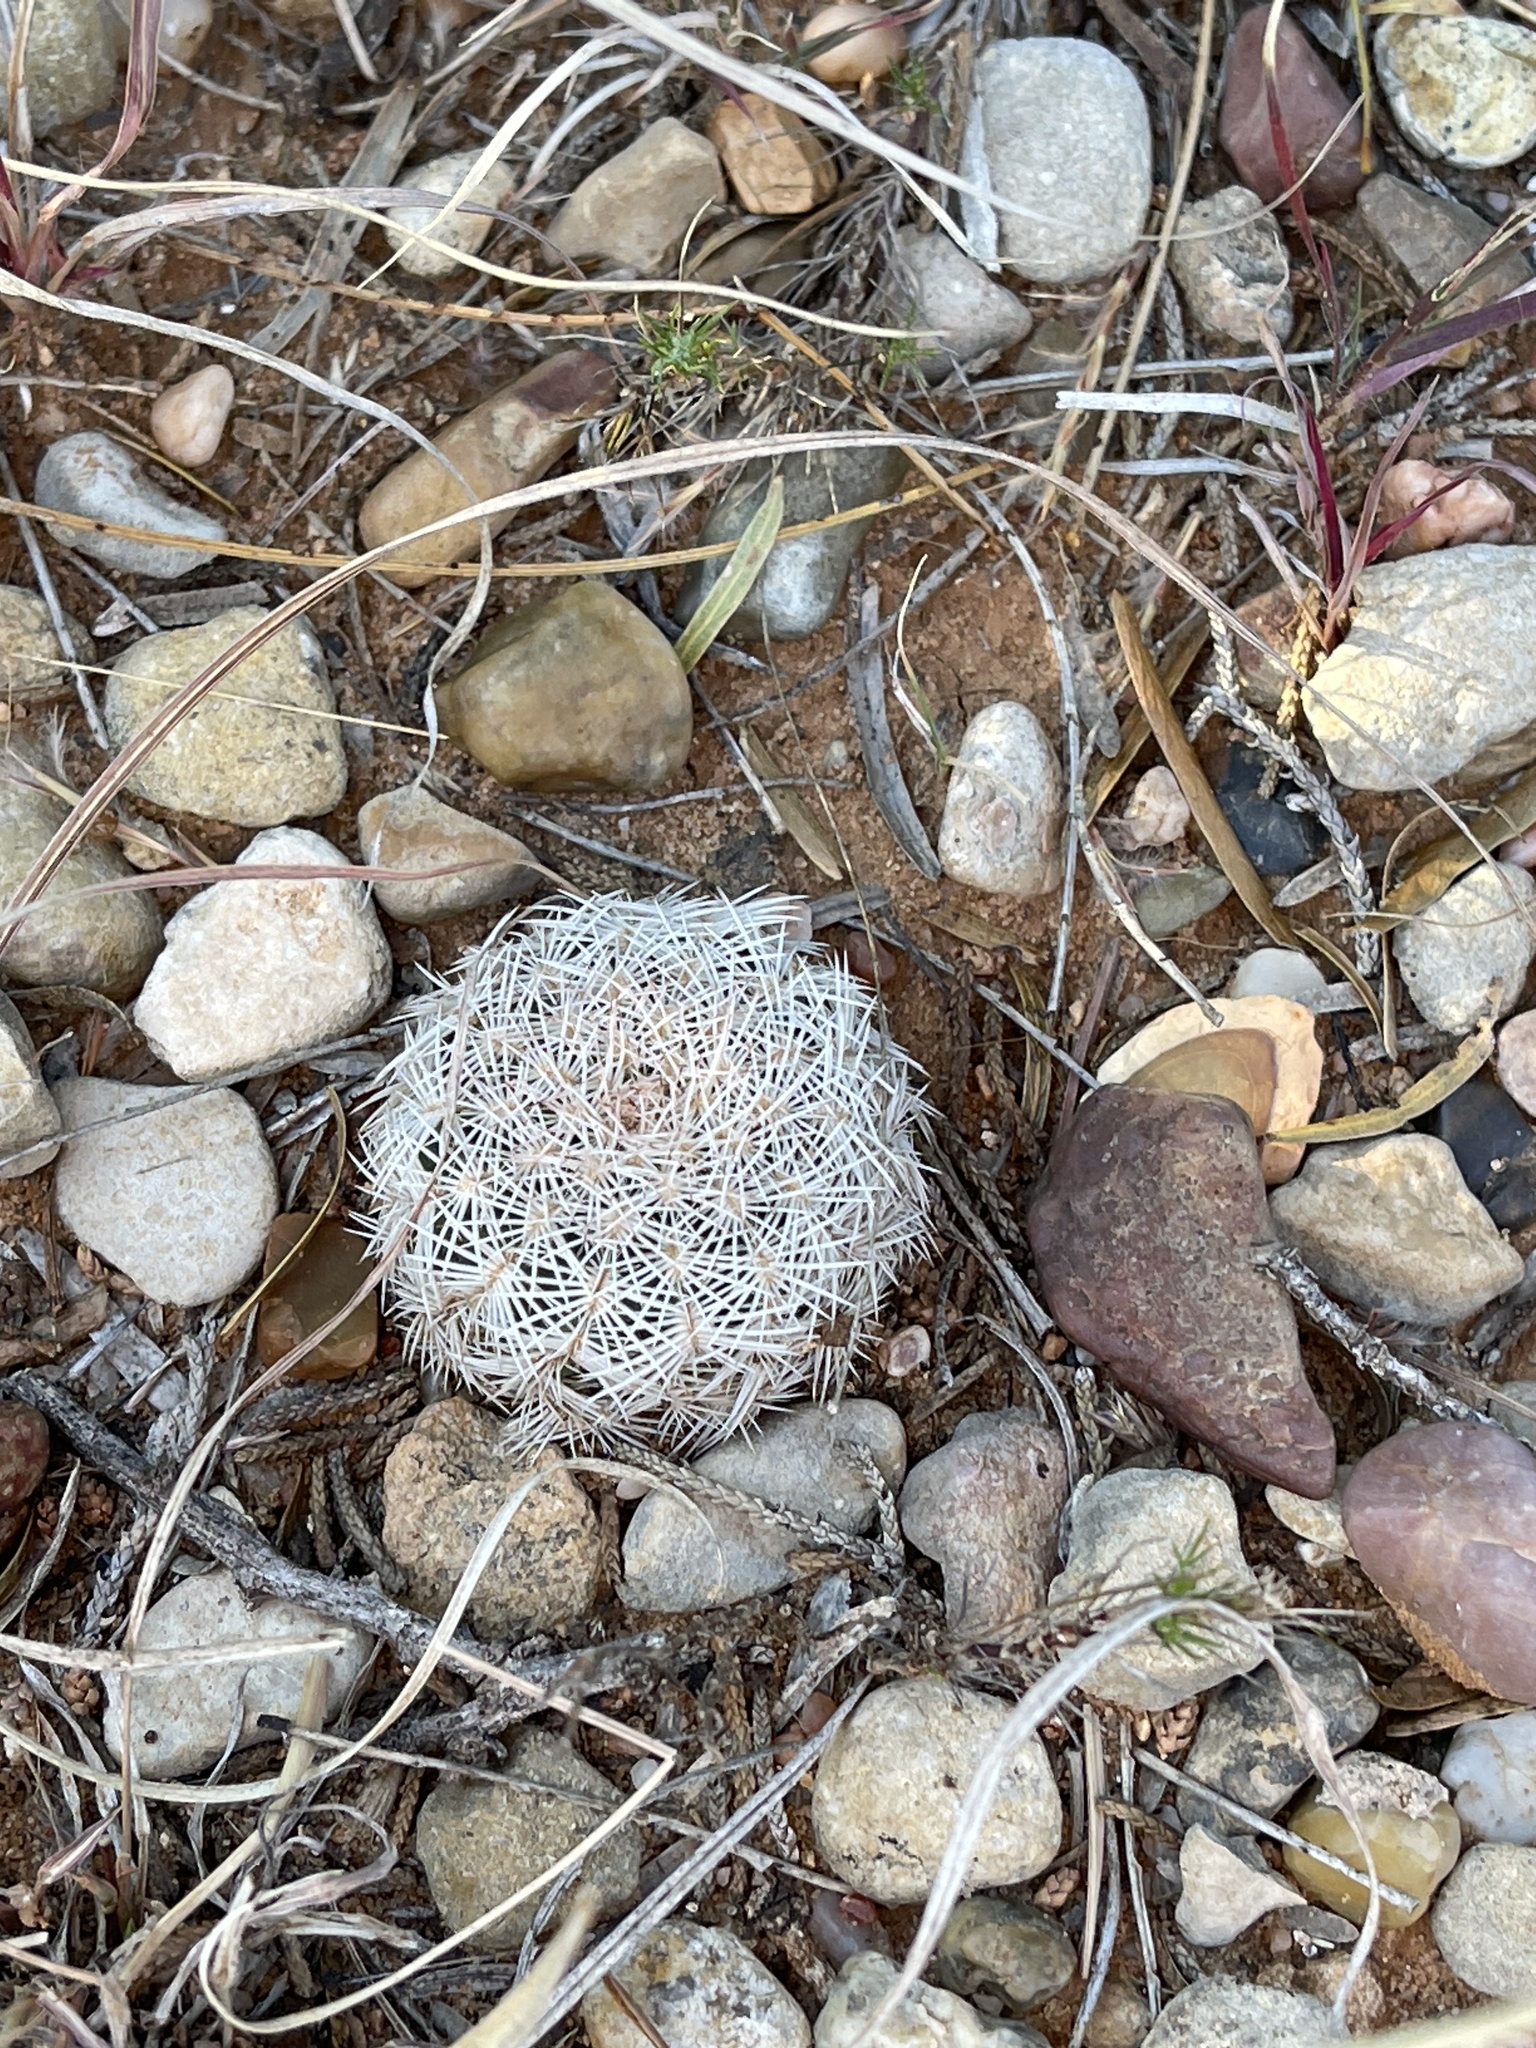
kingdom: Plantae
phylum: Tracheophyta
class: Magnoliopsida
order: Caryophyllales
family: Cactaceae
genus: Echinocereus
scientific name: Echinocereus reichenbachii
